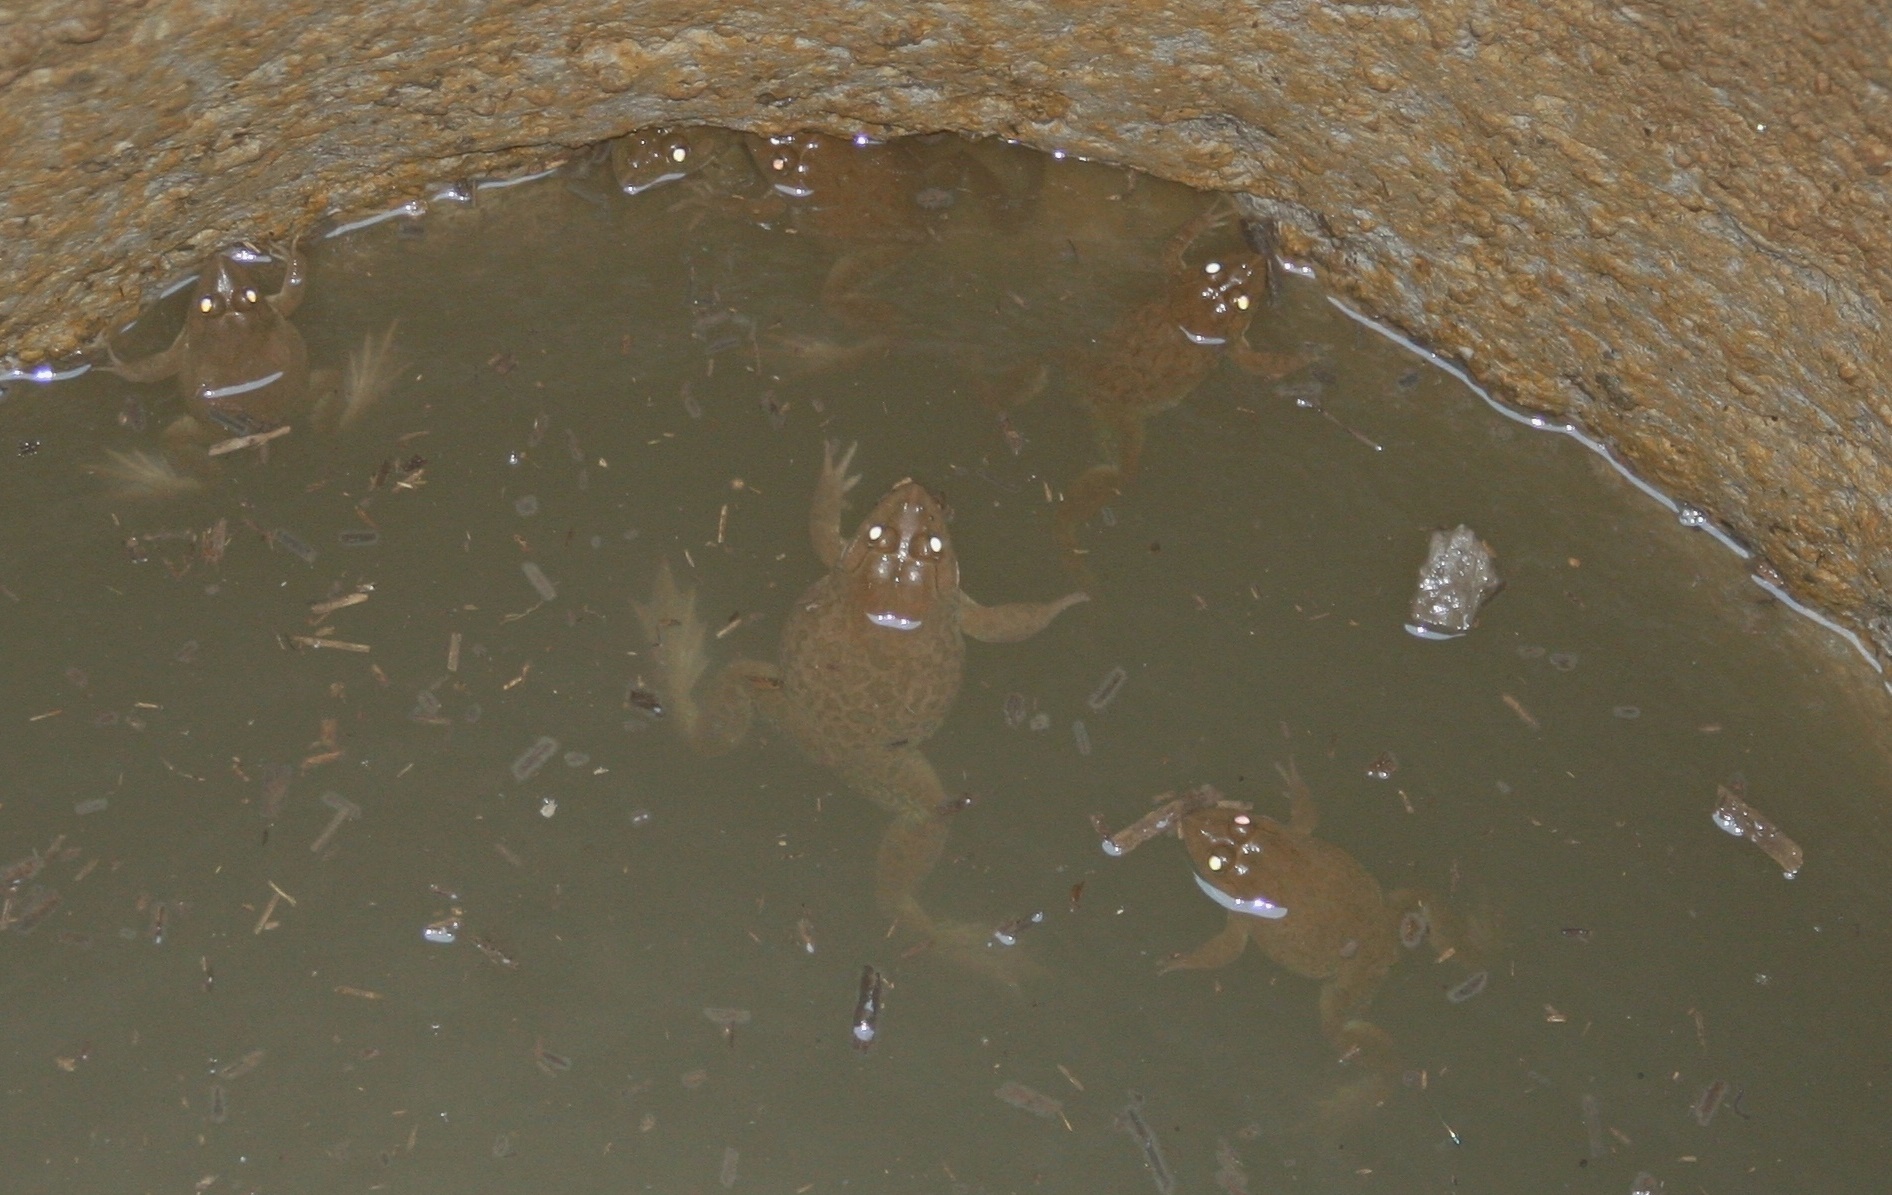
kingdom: Animalia
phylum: Chordata
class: Amphibia
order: Anura
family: Dicroglossidae
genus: Hoplobatrachus
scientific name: Hoplobatrachus occipitalis
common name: Eastern groove-crowned bullfrog
